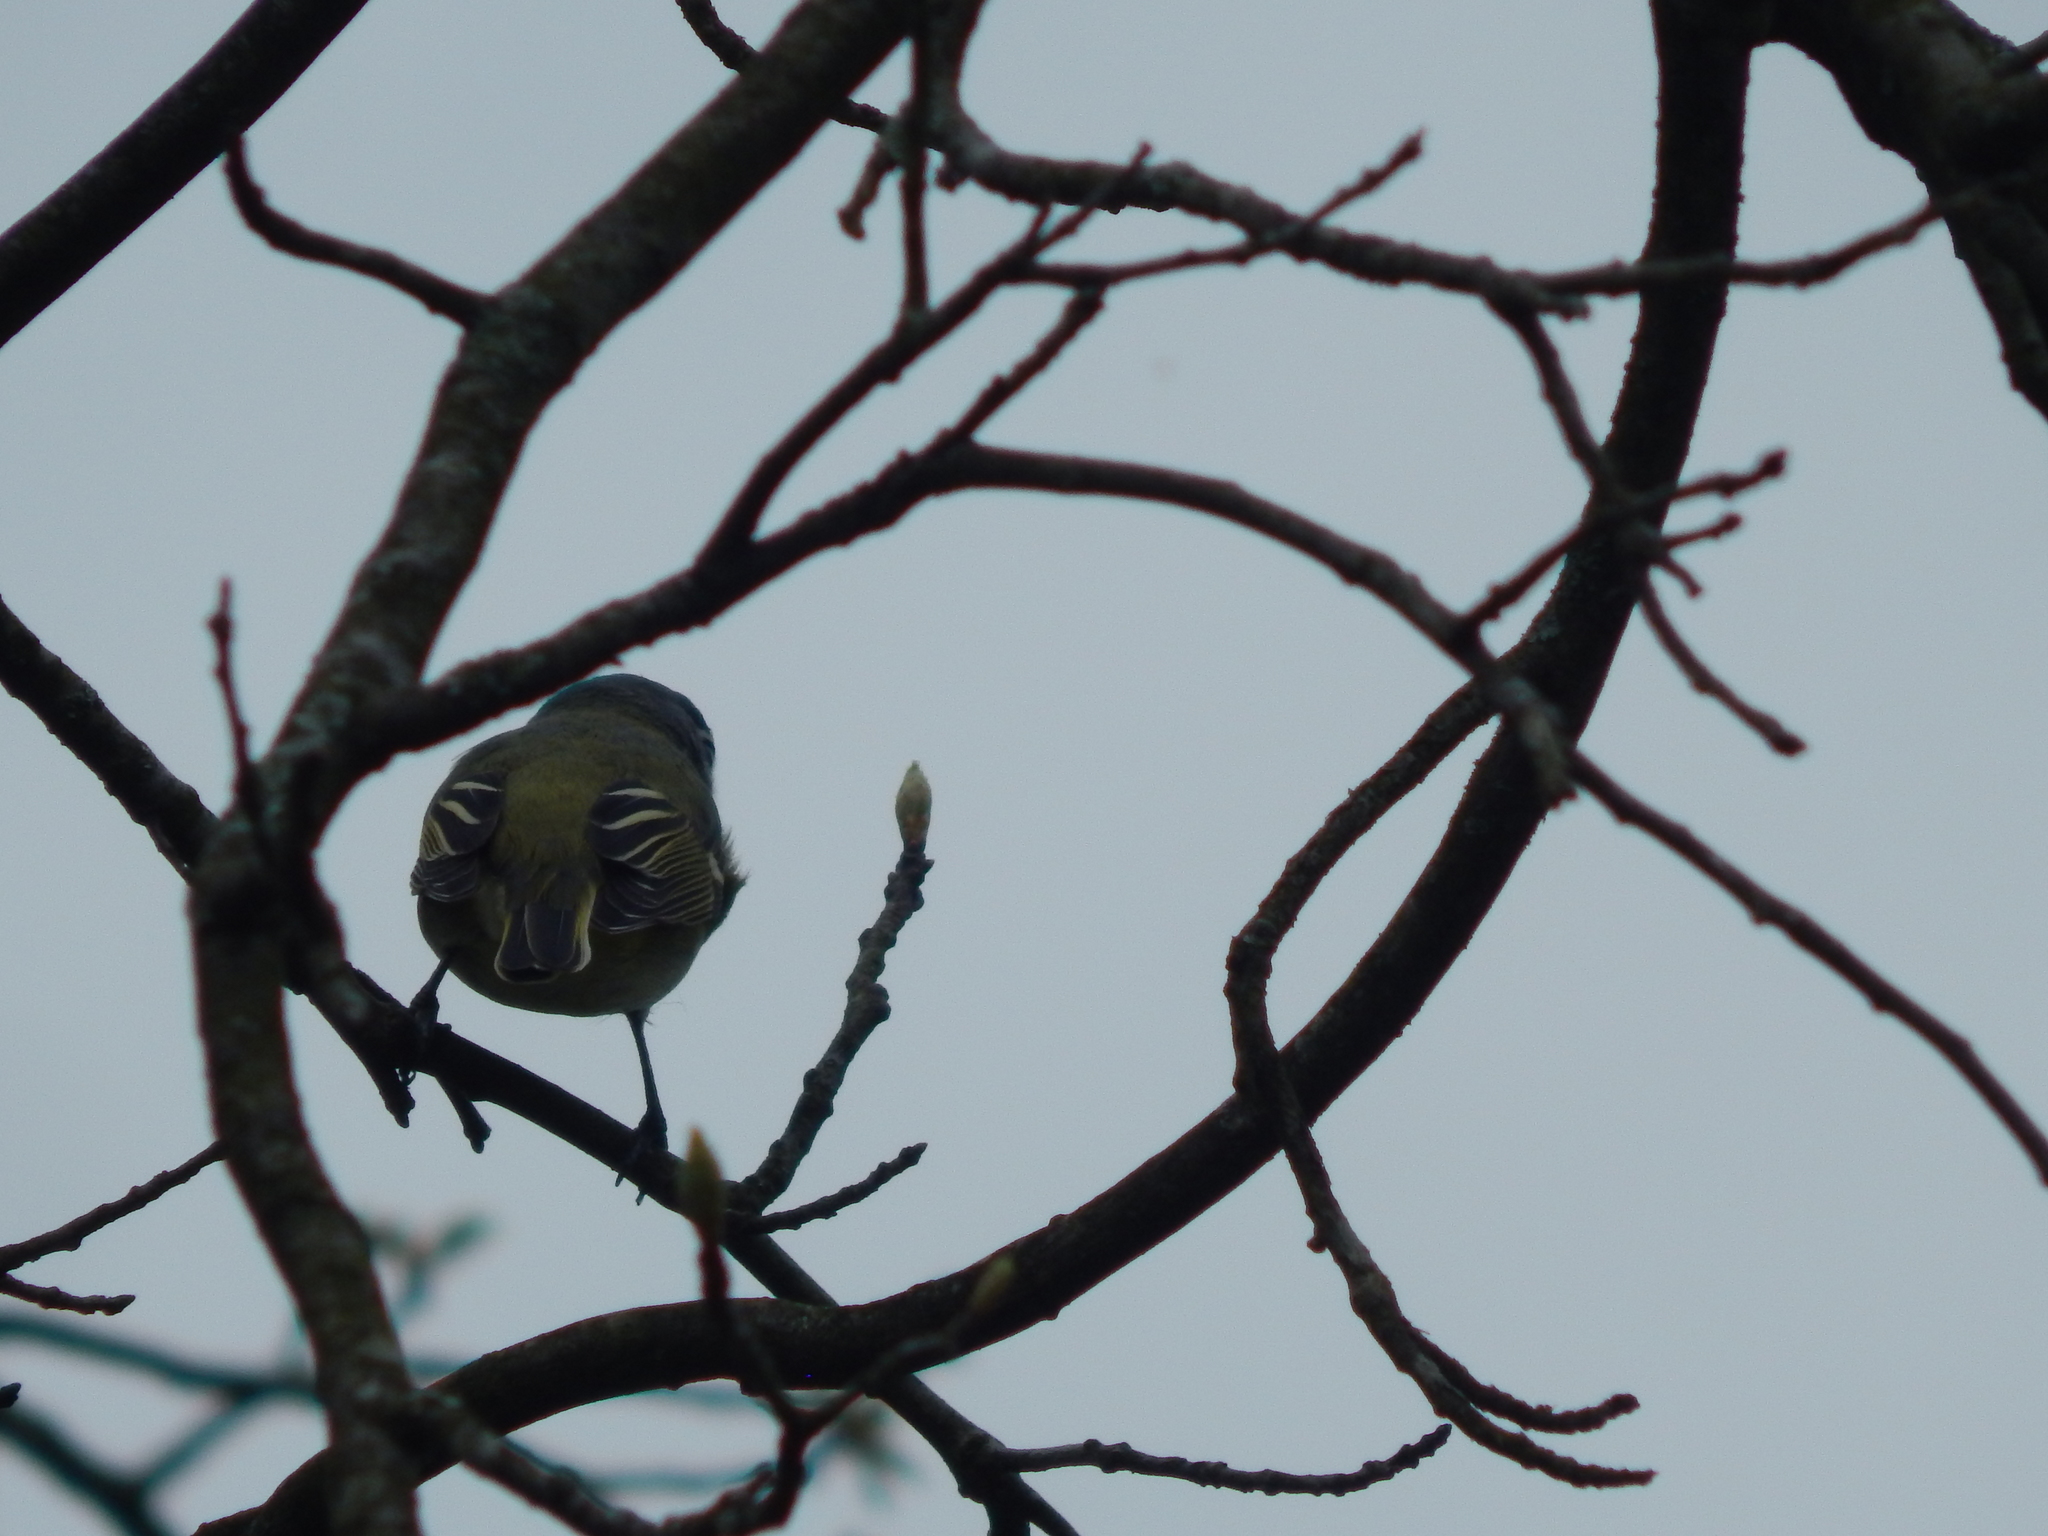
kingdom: Animalia
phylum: Chordata
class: Aves
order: Passeriformes
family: Vireonidae
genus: Vireo
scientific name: Vireo solitarius
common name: Blue-headed vireo
